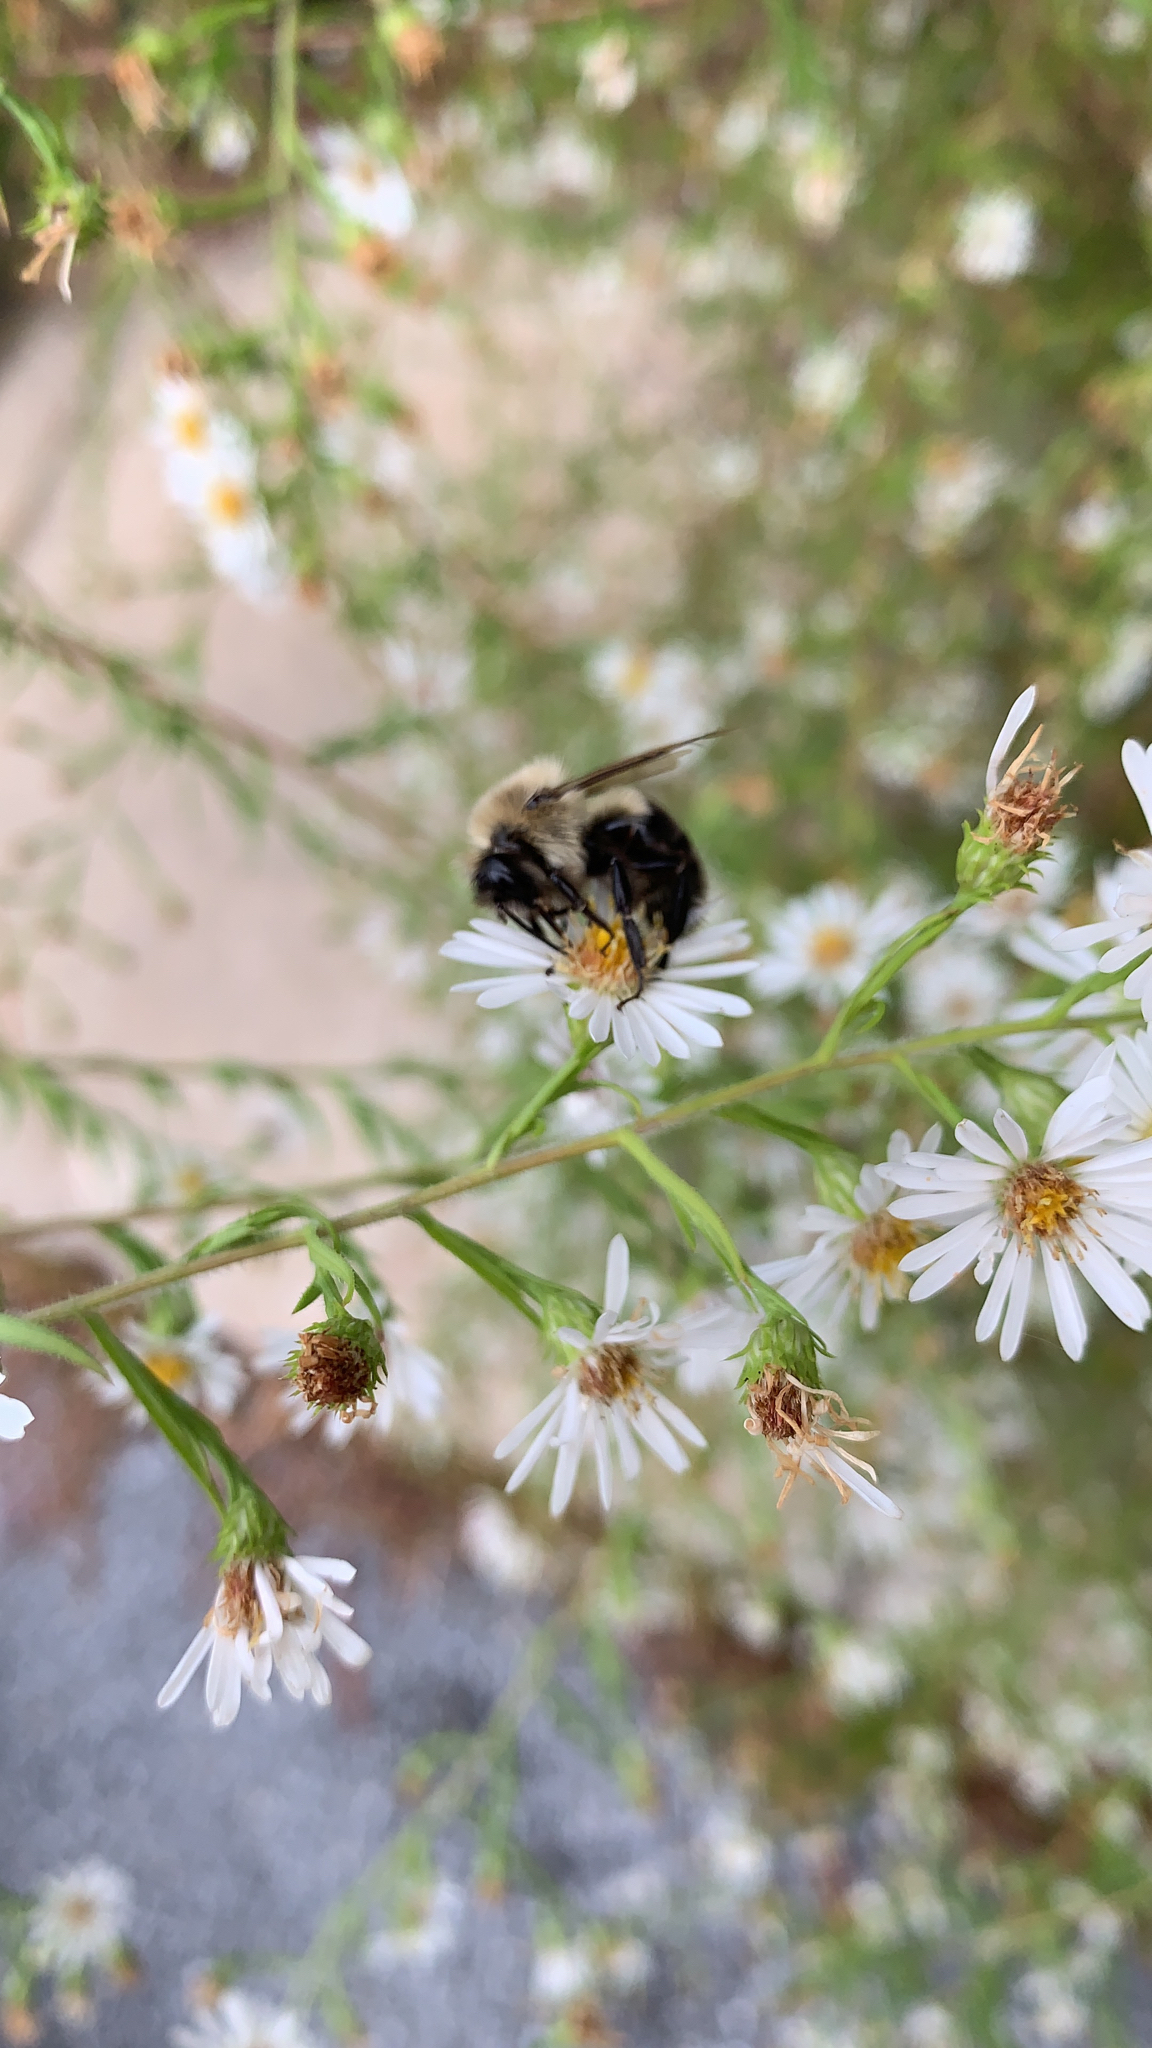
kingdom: Animalia
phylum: Arthropoda
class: Insecta
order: Hymenoptera
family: Apidae
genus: Bombus
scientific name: Bombus impatiens
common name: Common eastern bumble bee
